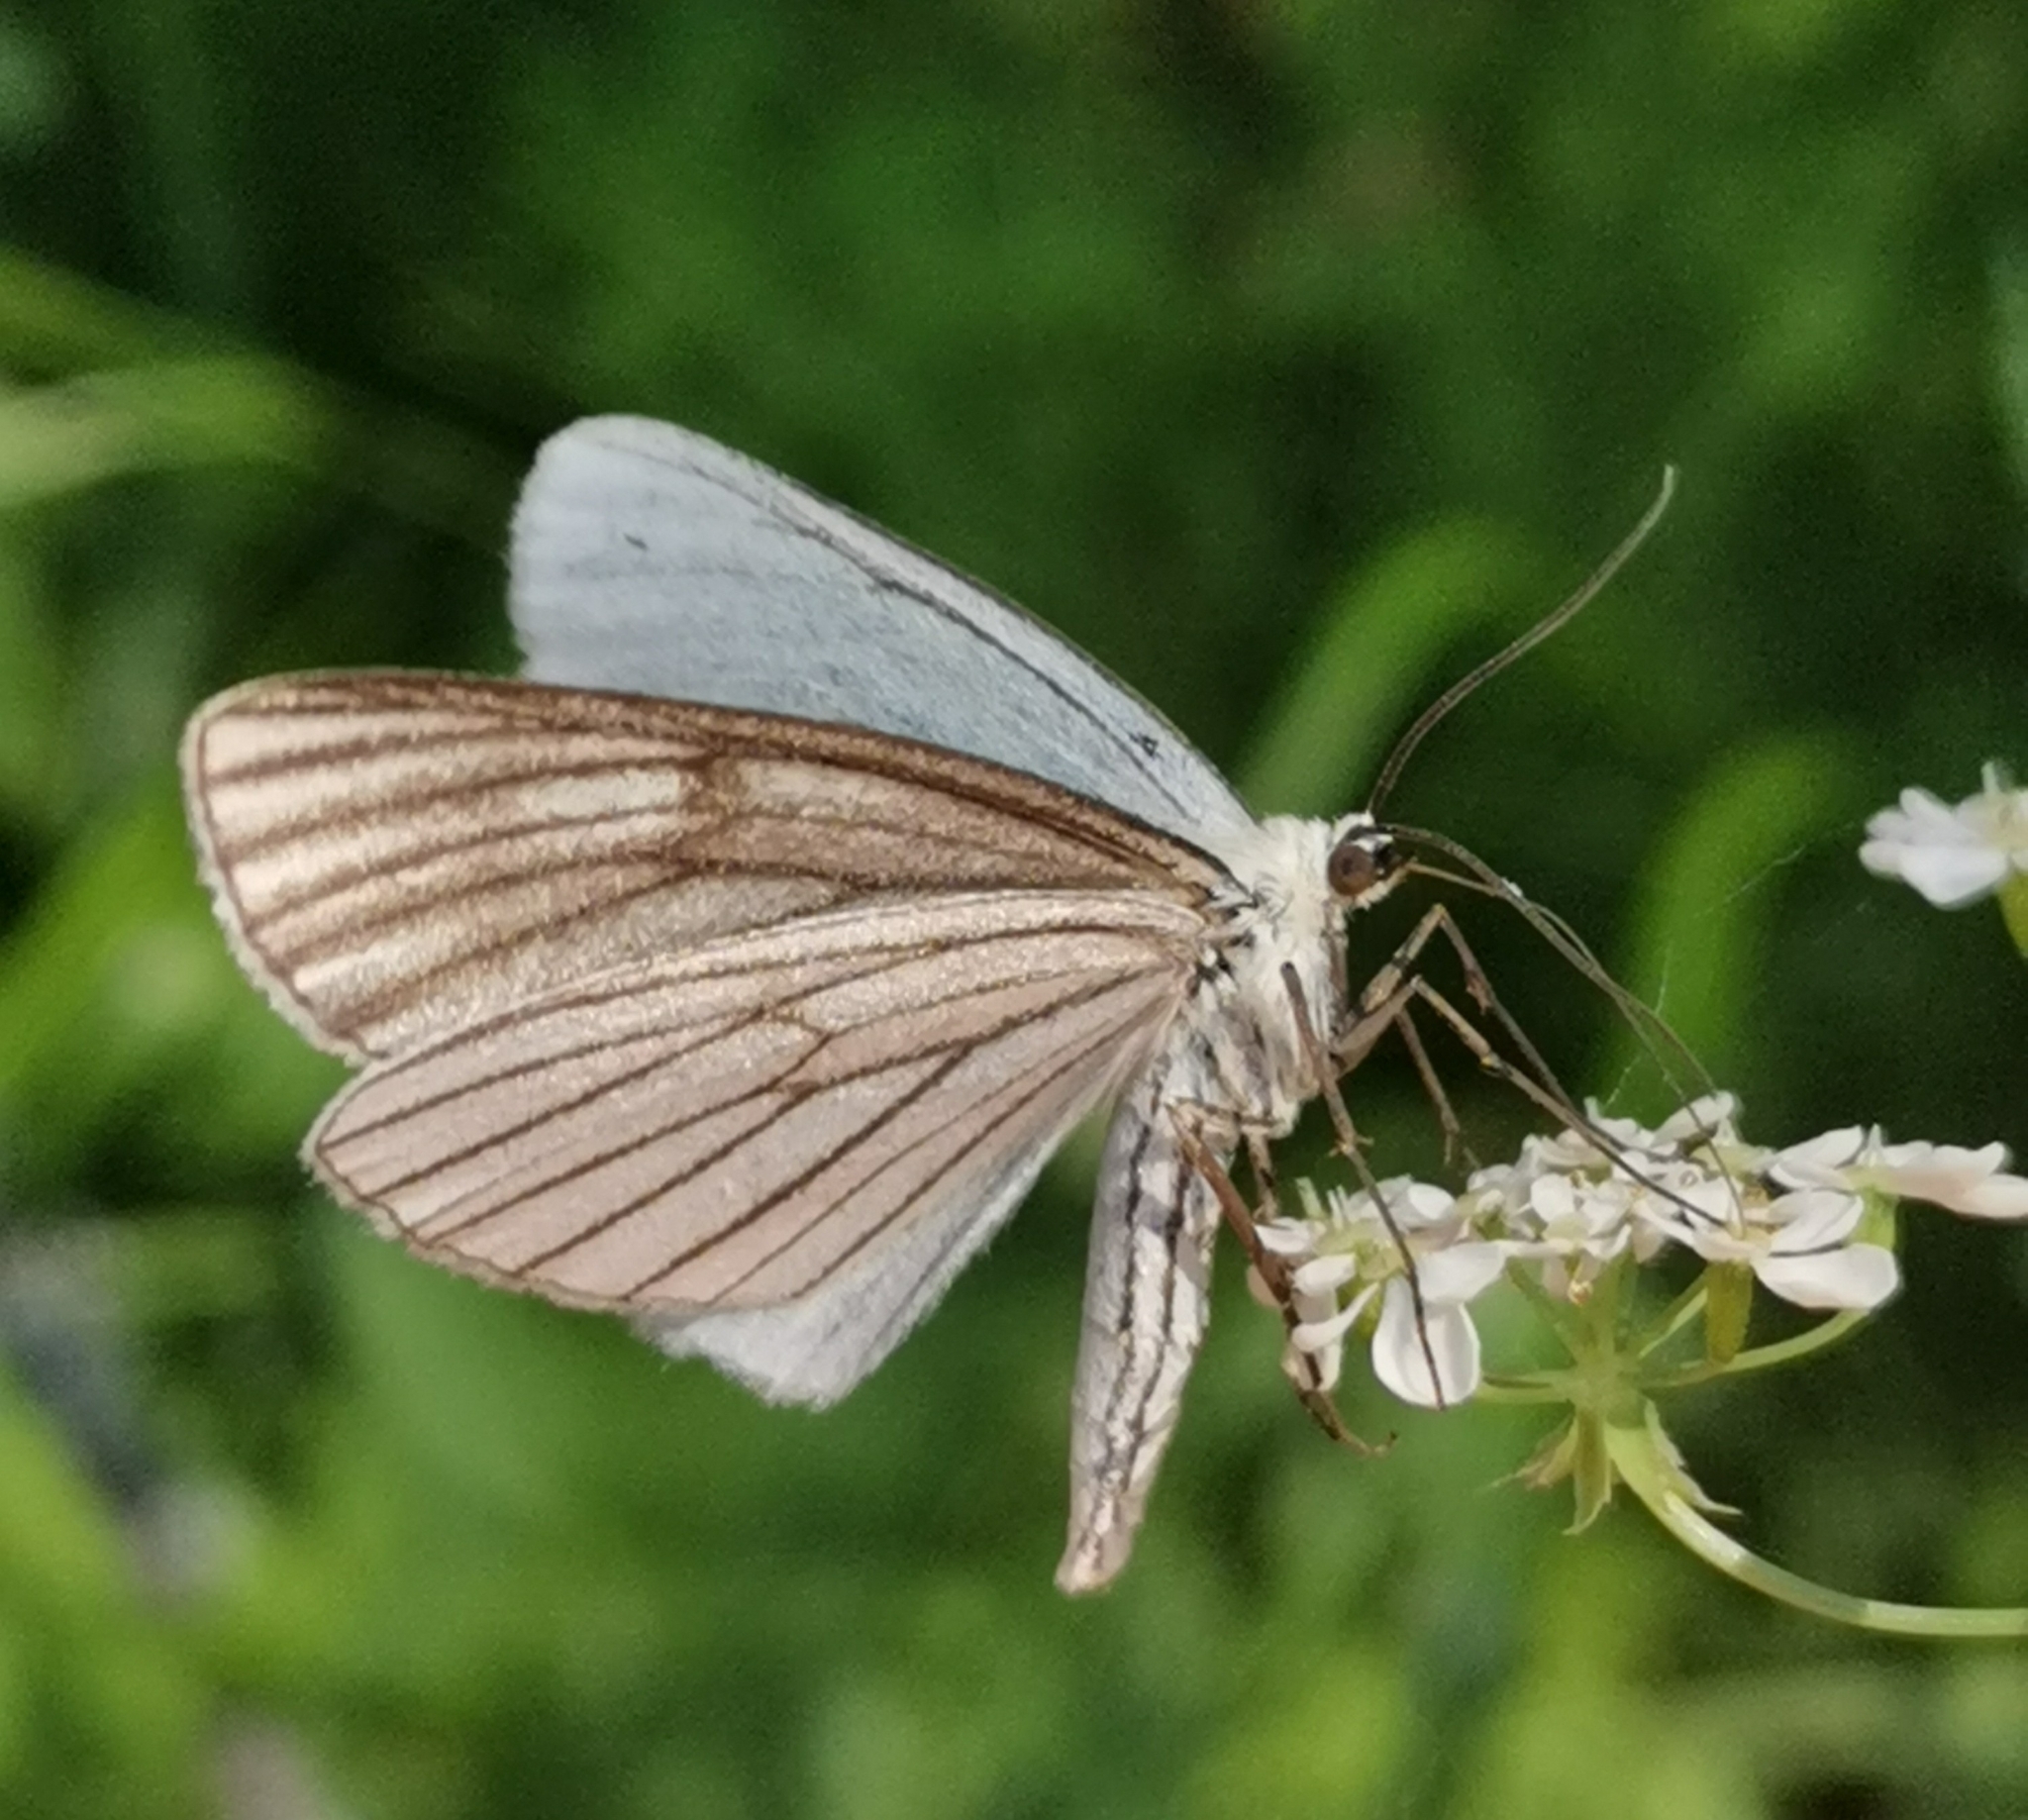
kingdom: Animalia
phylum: Arthropoda
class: Insecta
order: Lepidoptera
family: Geometridae
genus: Siona
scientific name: Siona lineata
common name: Black-veined moth
